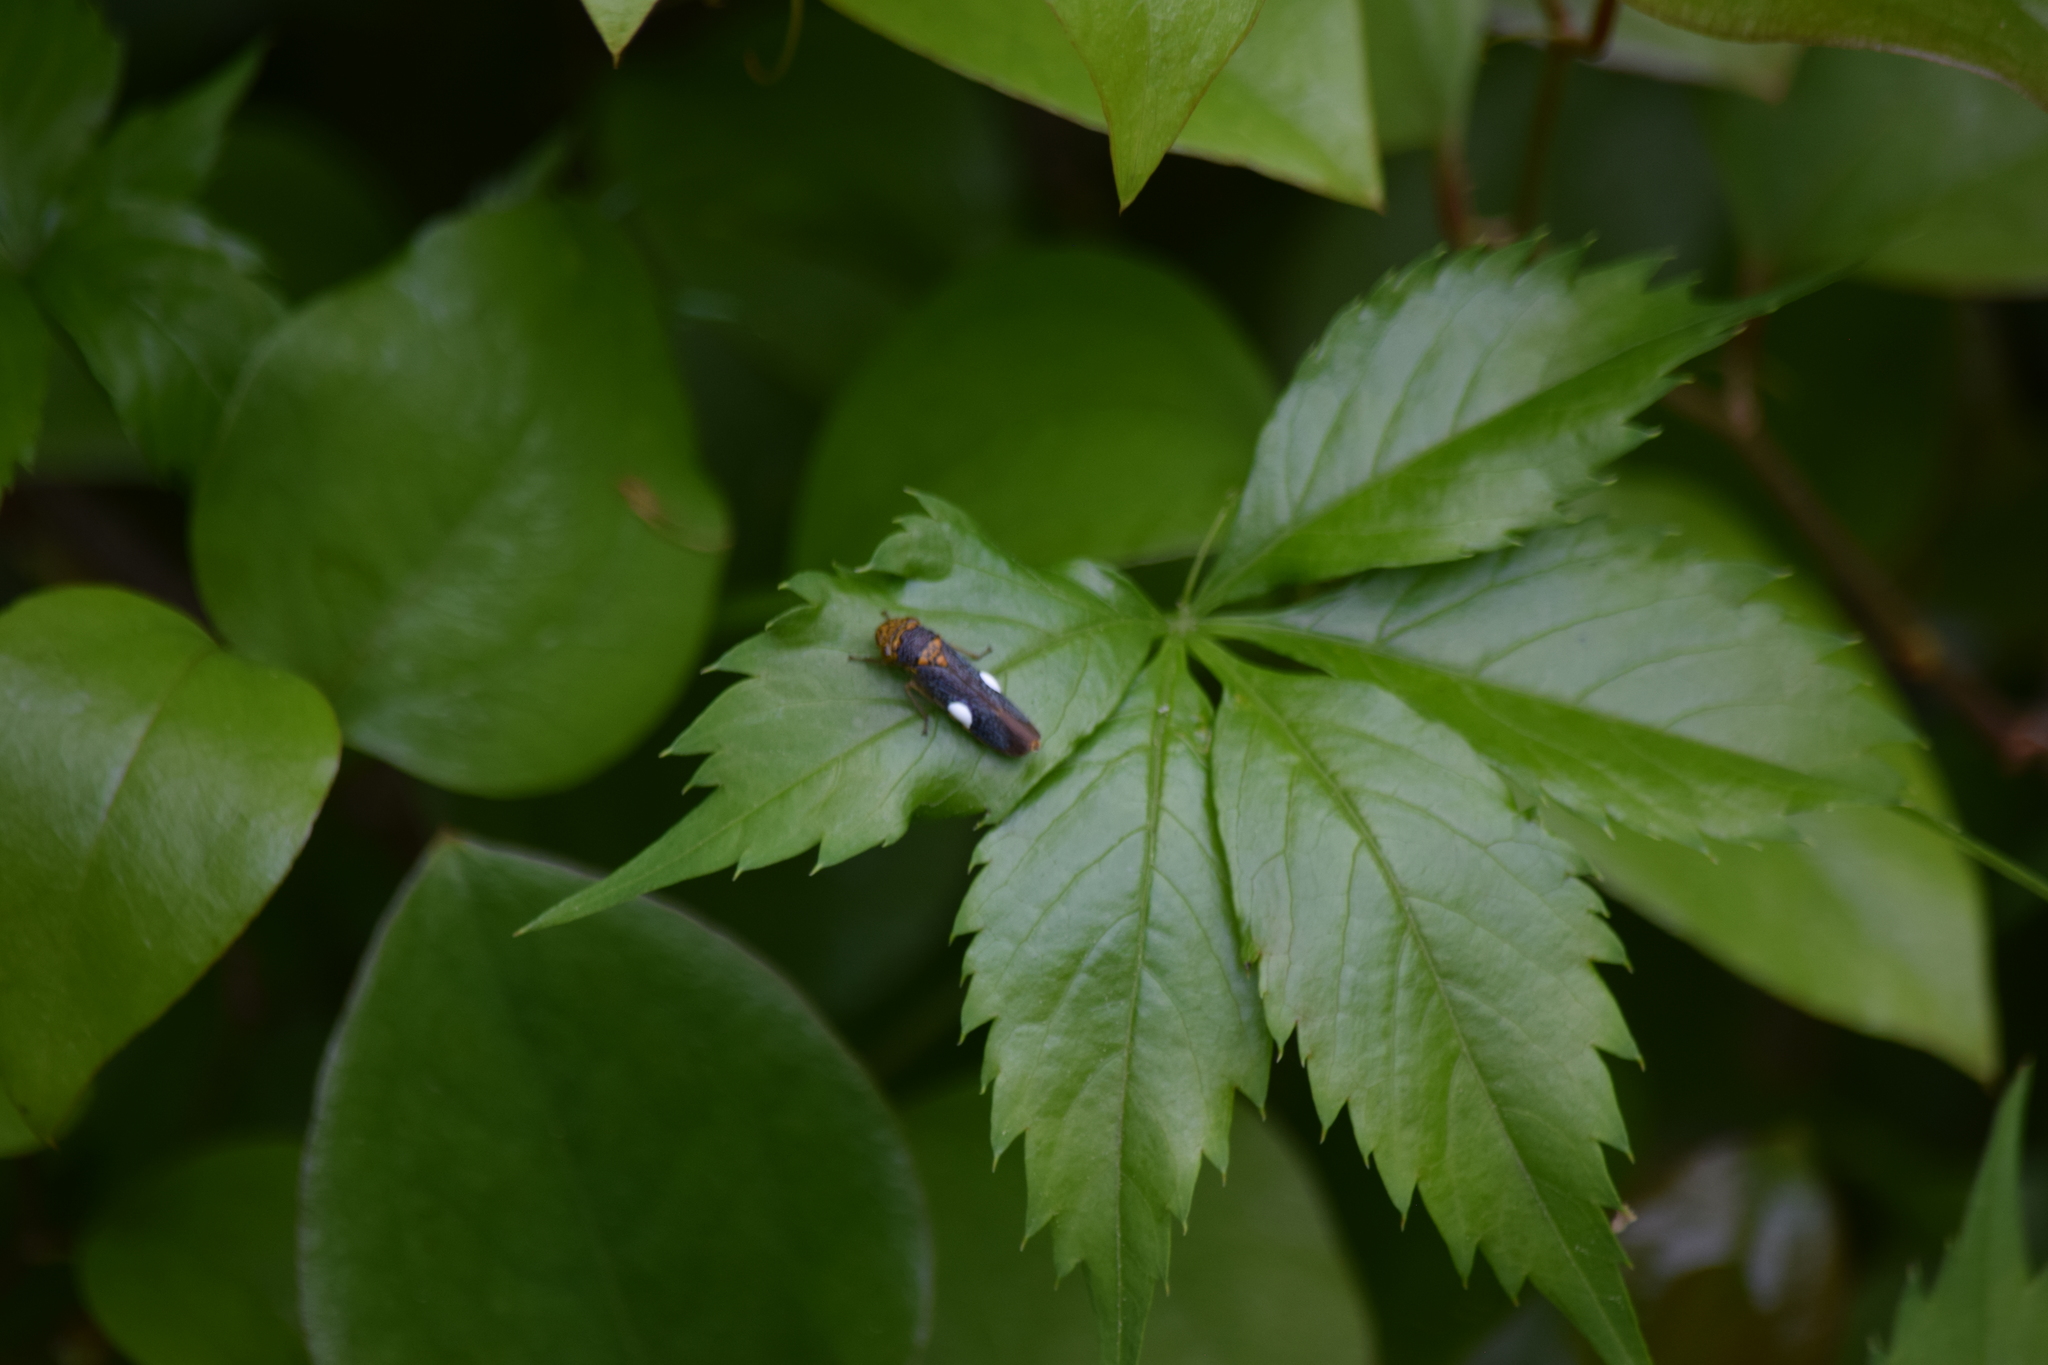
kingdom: Animalia
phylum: Arthropoda
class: Insecta
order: Hemiptera
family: Cicadellidae
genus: Oncometopia
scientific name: Oncometopia orbona
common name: Broad-headed sharpshooter
